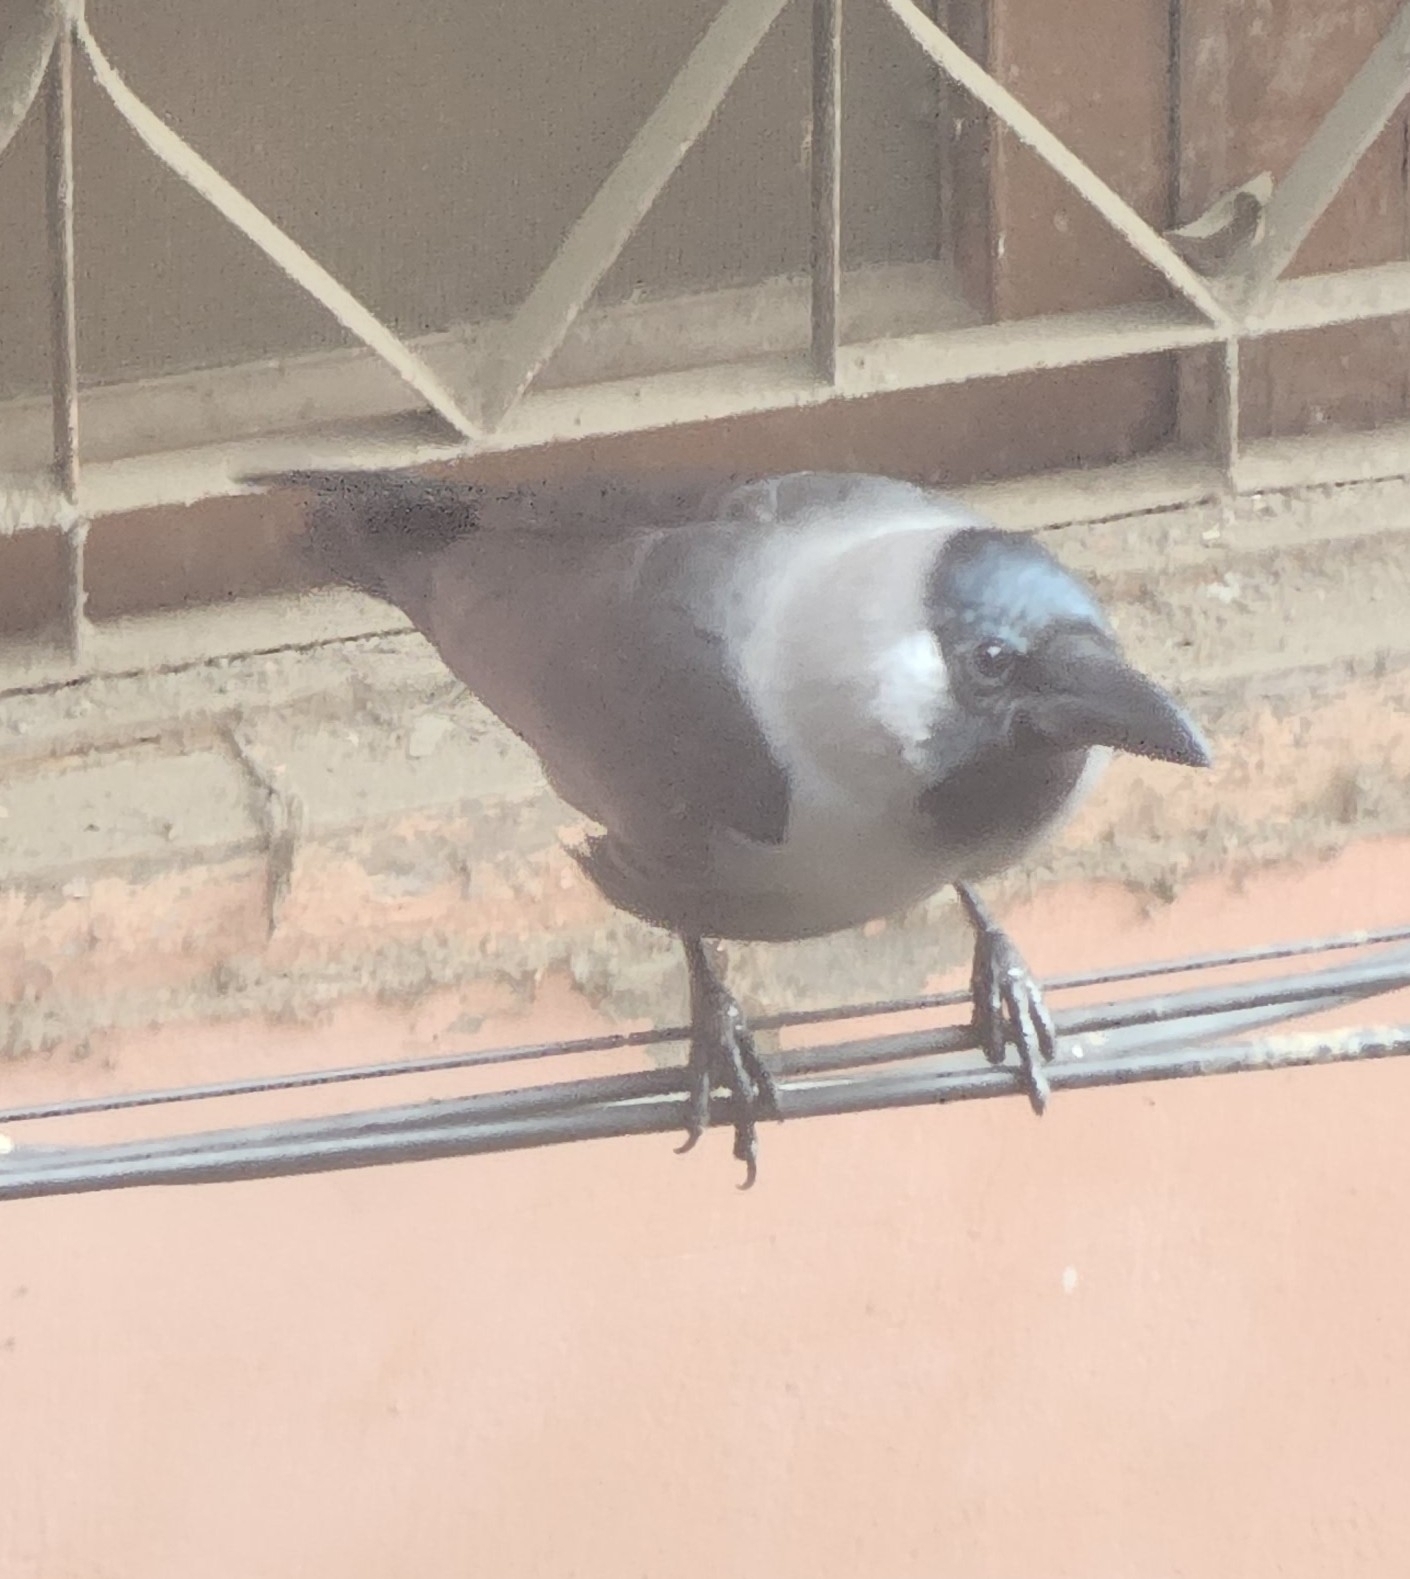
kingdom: Animalia
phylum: Chordata
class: Aves
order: Passeriformes
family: Corvidae
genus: Corvus
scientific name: Corvus splendens
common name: House crow
